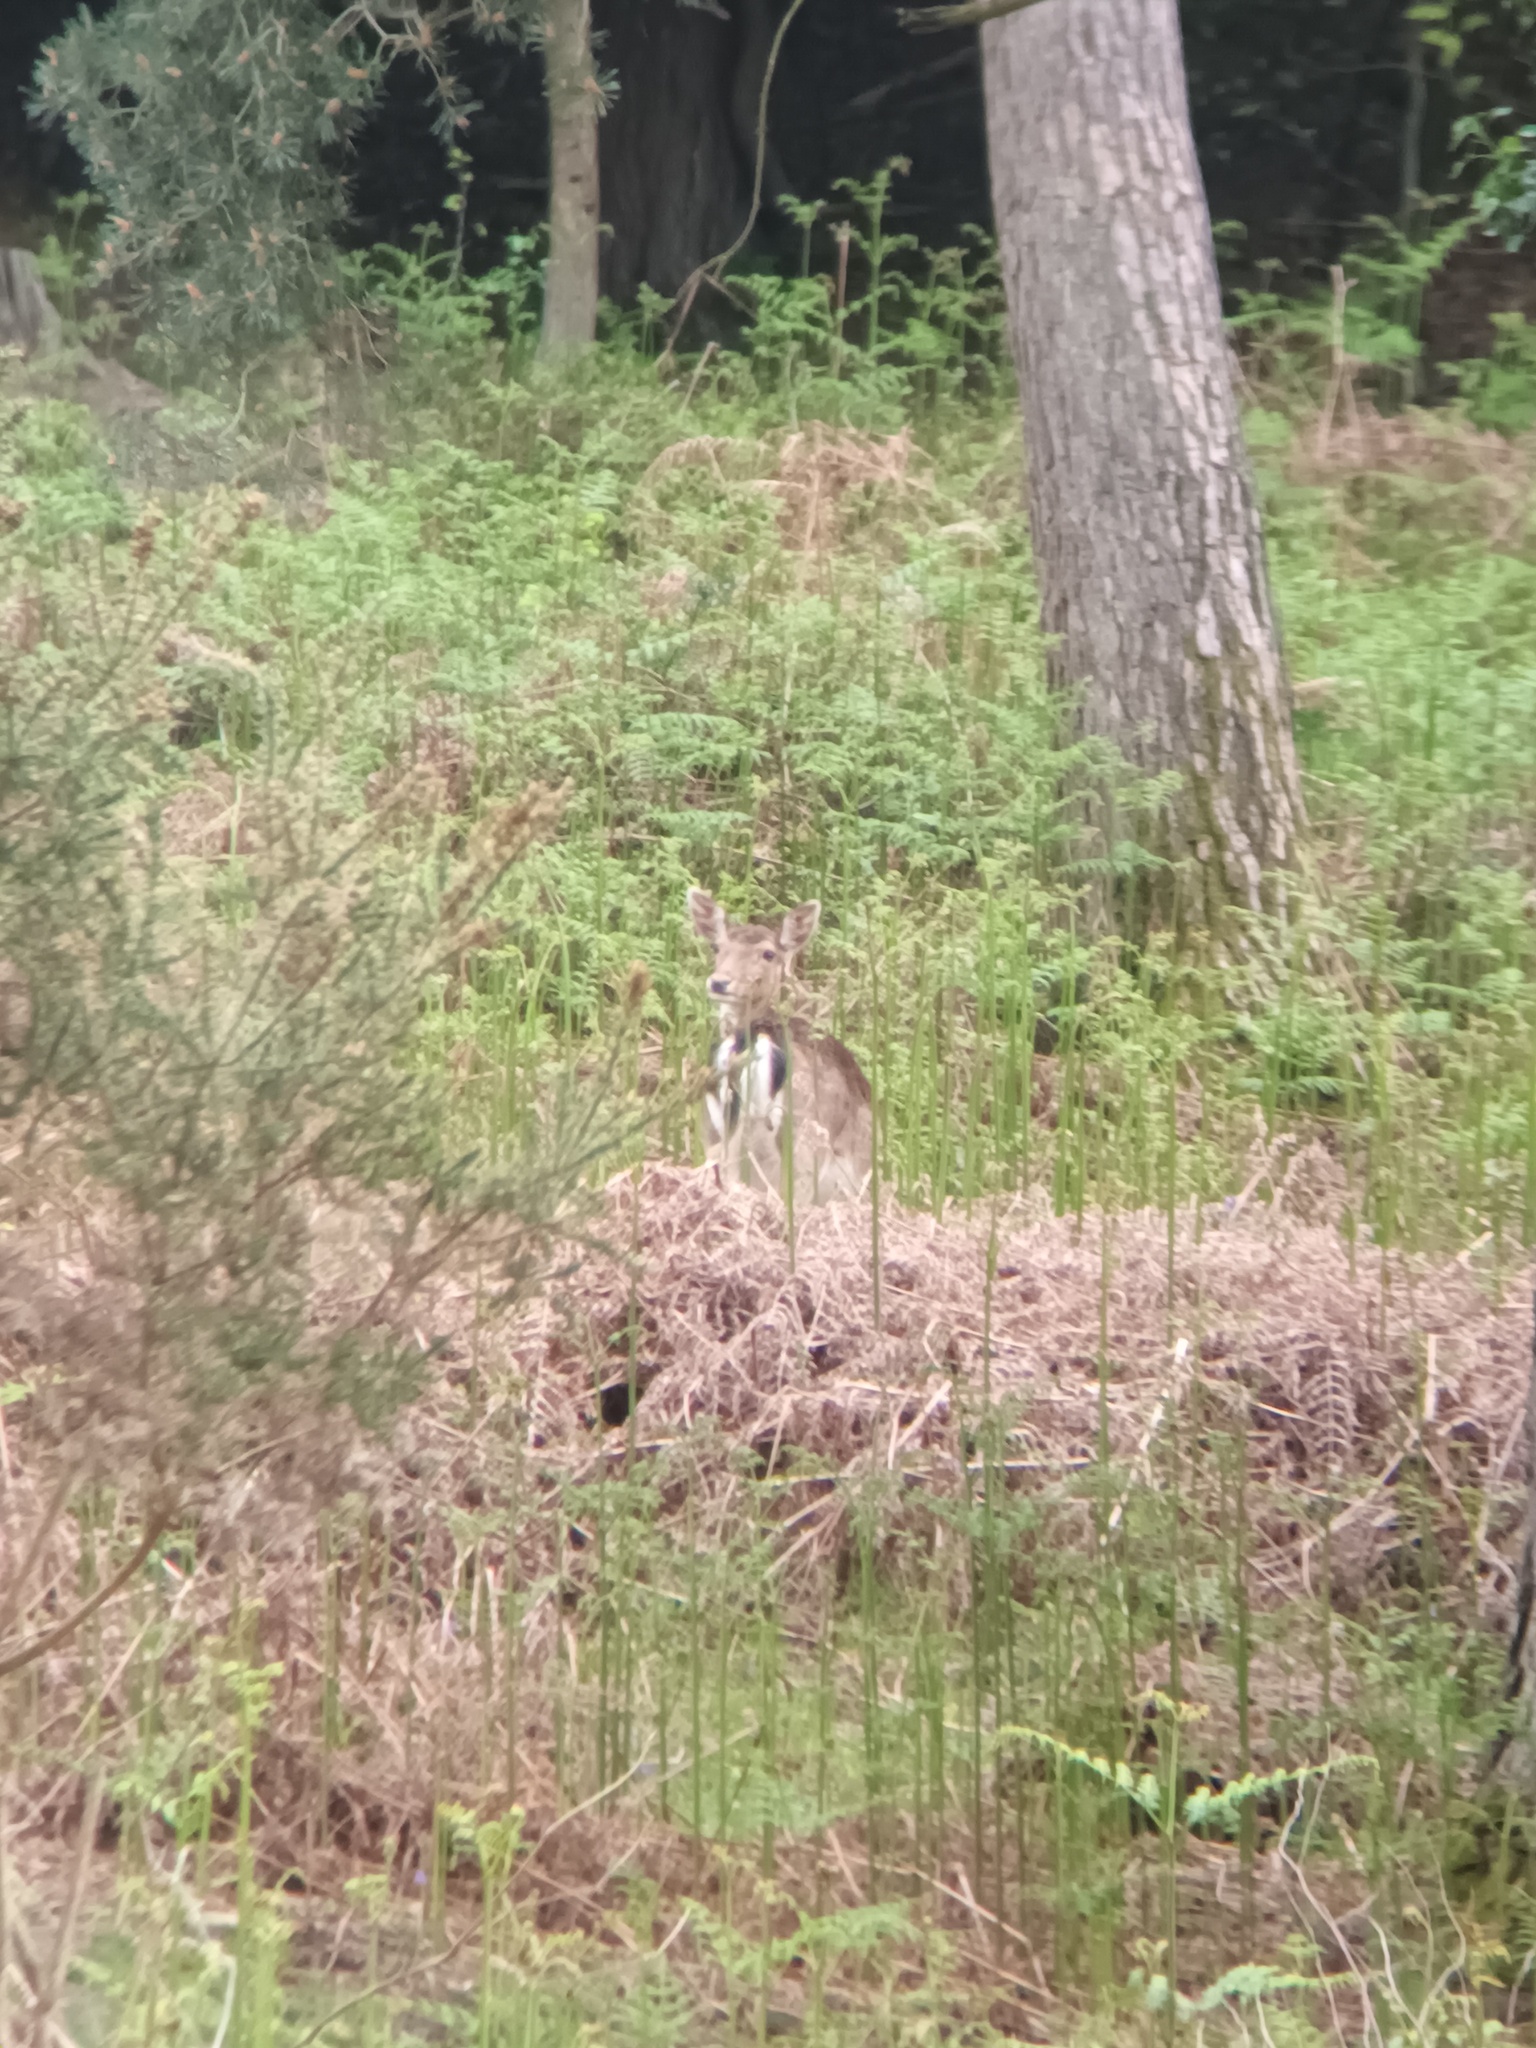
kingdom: Animalia
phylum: Chordata
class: Mammalia
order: Artiodactyla
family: Cervidae
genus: Dama
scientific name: Dama dama
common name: Fallow deer
